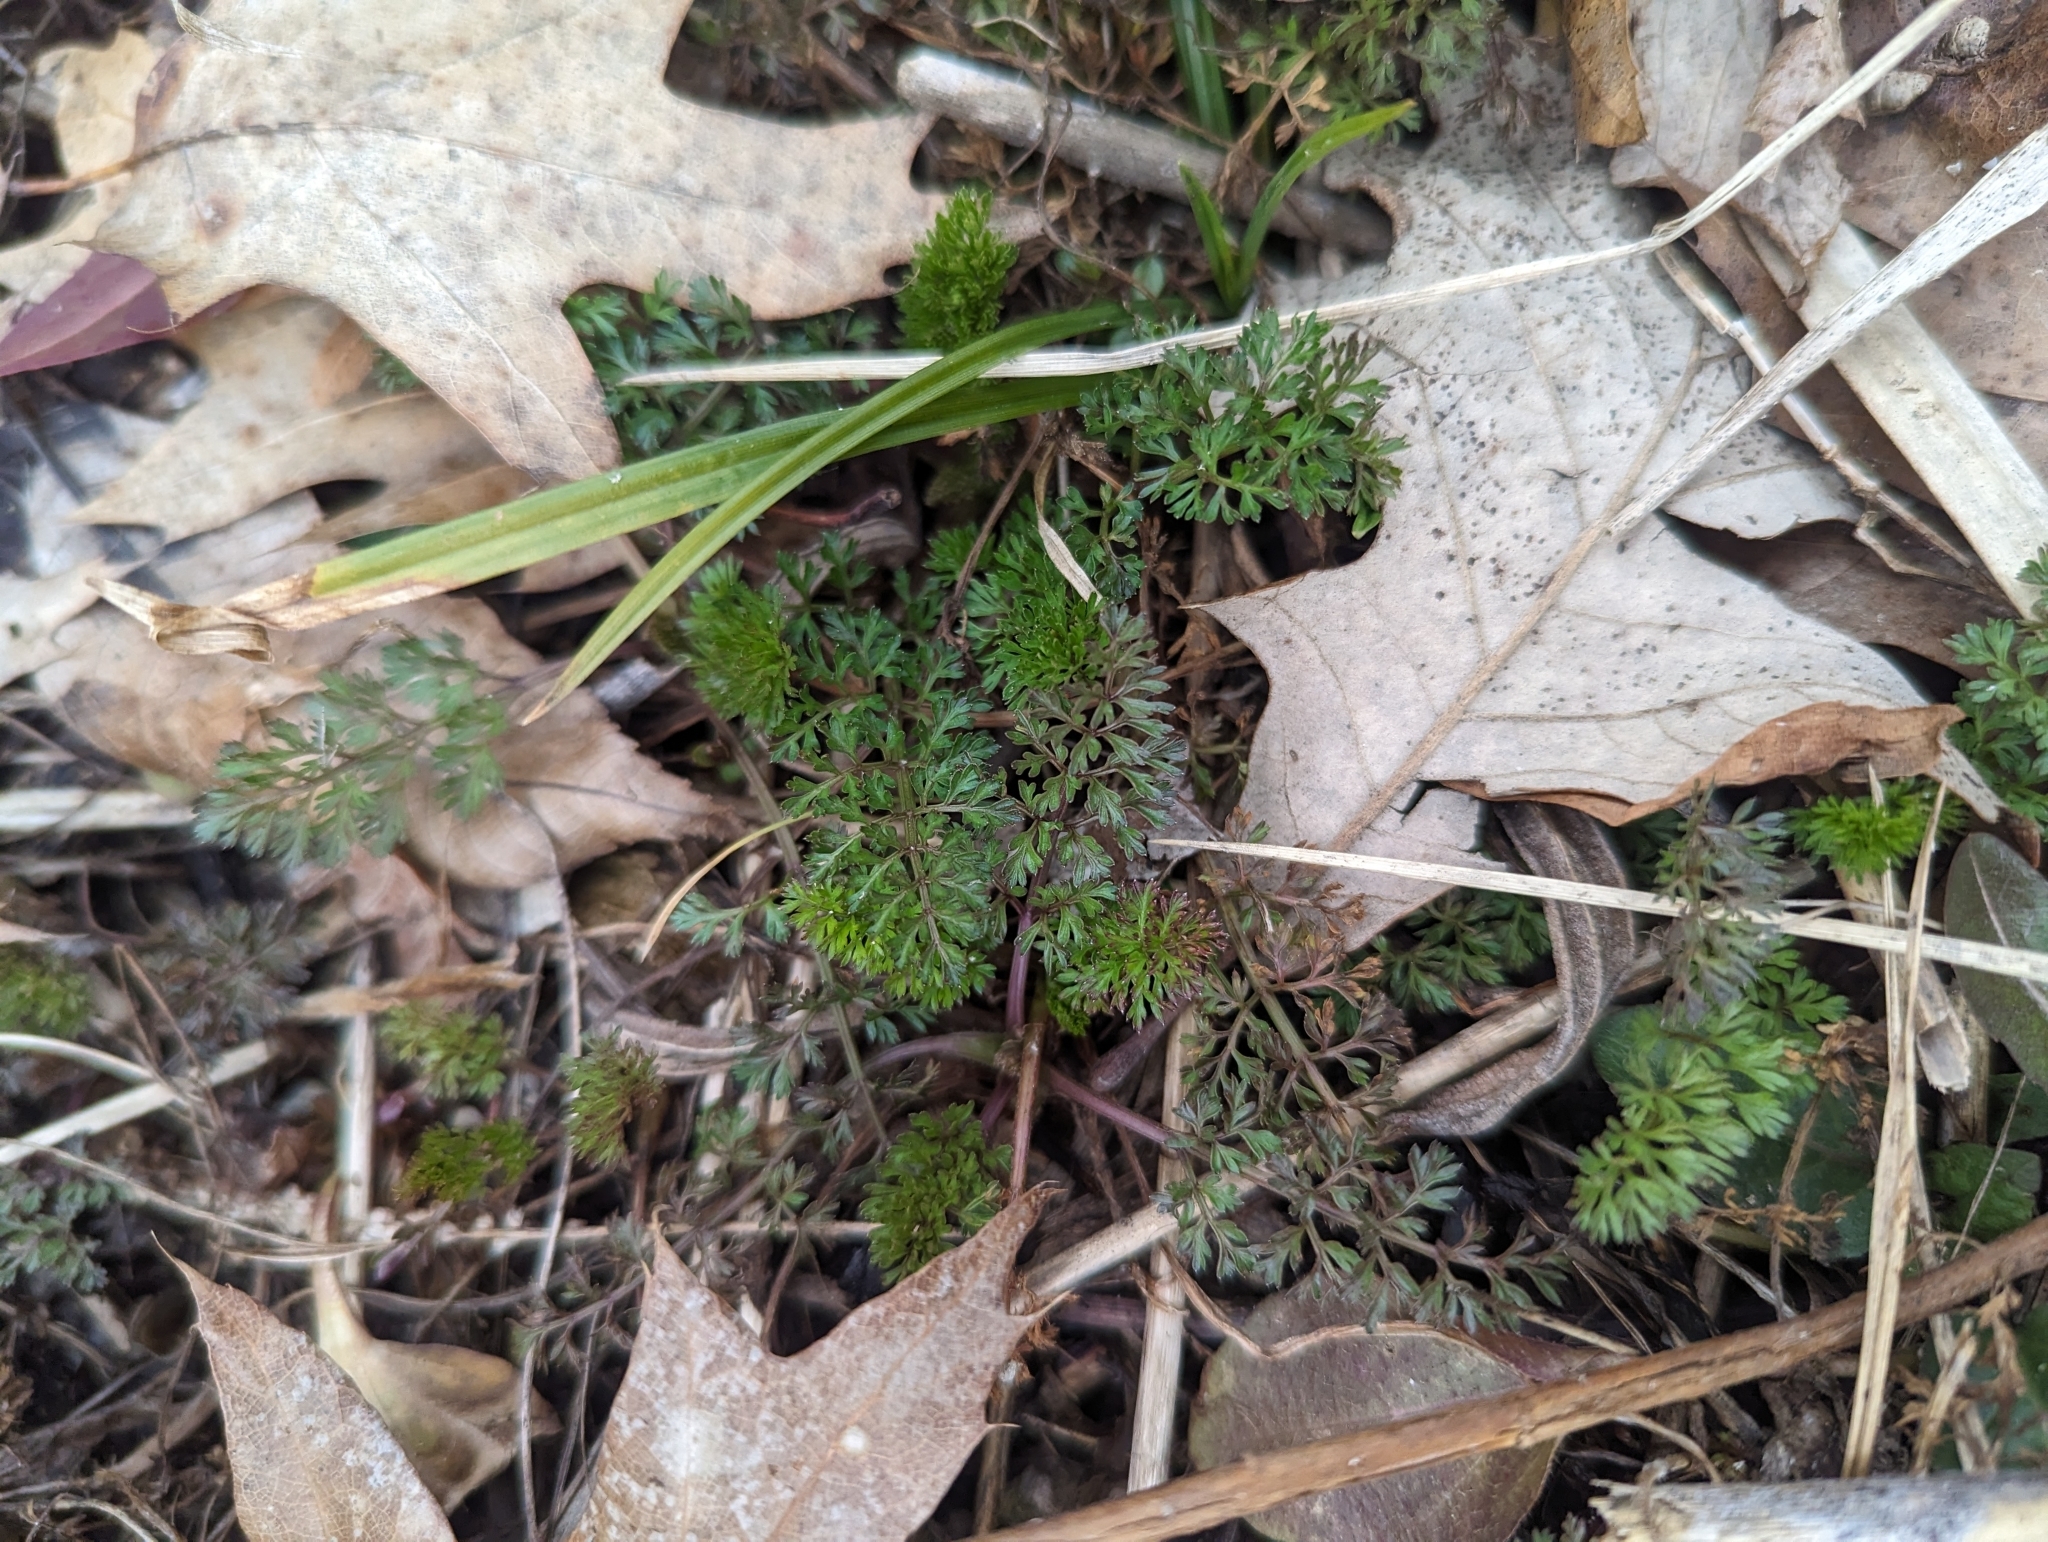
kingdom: Plantae
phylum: Tracheophyta
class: Magnoliopsida
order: Apiales
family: Apiaceae
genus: Daucus
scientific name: Daucus carota
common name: Wild carrot
